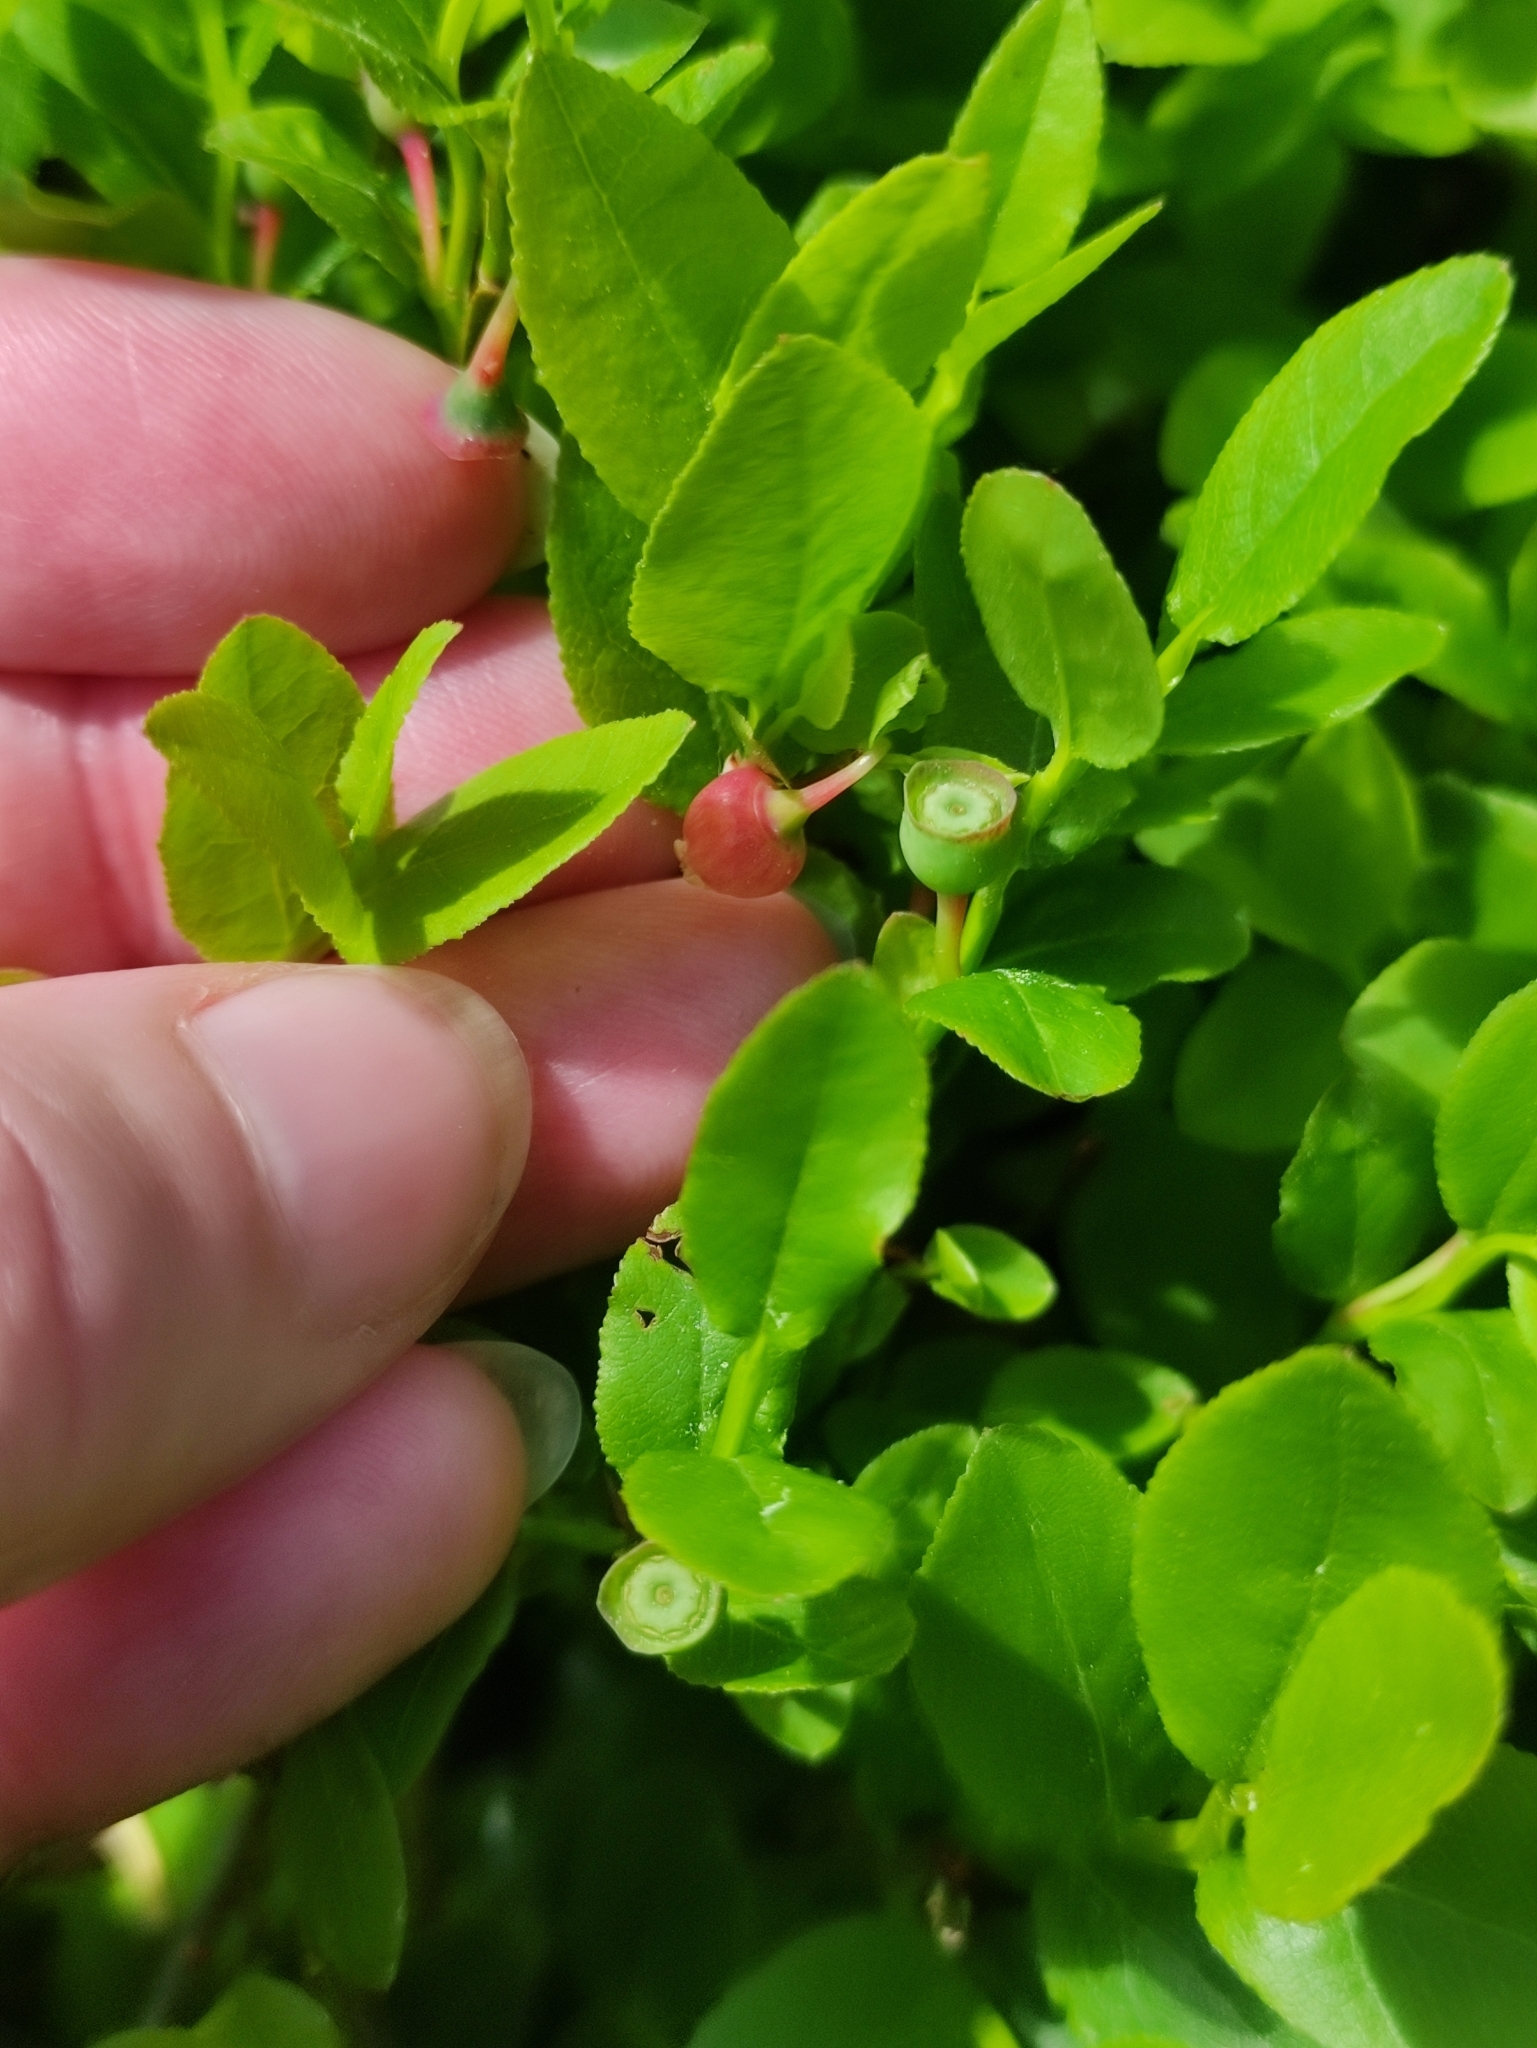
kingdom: Plantae
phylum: Tracheophyta
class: Magnoliopsida
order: Ericales
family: Ericaceae
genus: Vaccinium
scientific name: Vaccinium myrtillus
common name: Bilberry
